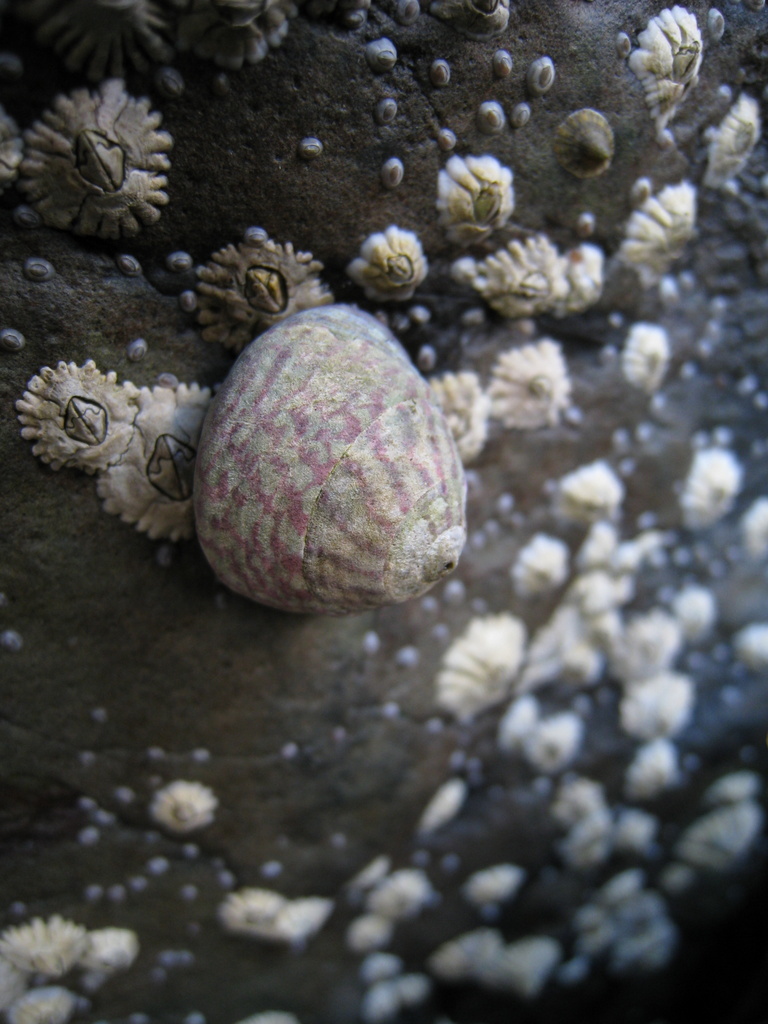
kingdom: Animalia
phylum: Mollusca
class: Gastropoda
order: Trochida
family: Trochidae
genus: Steromphala
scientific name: Steromphala umbilicalis
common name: Flat top shell
